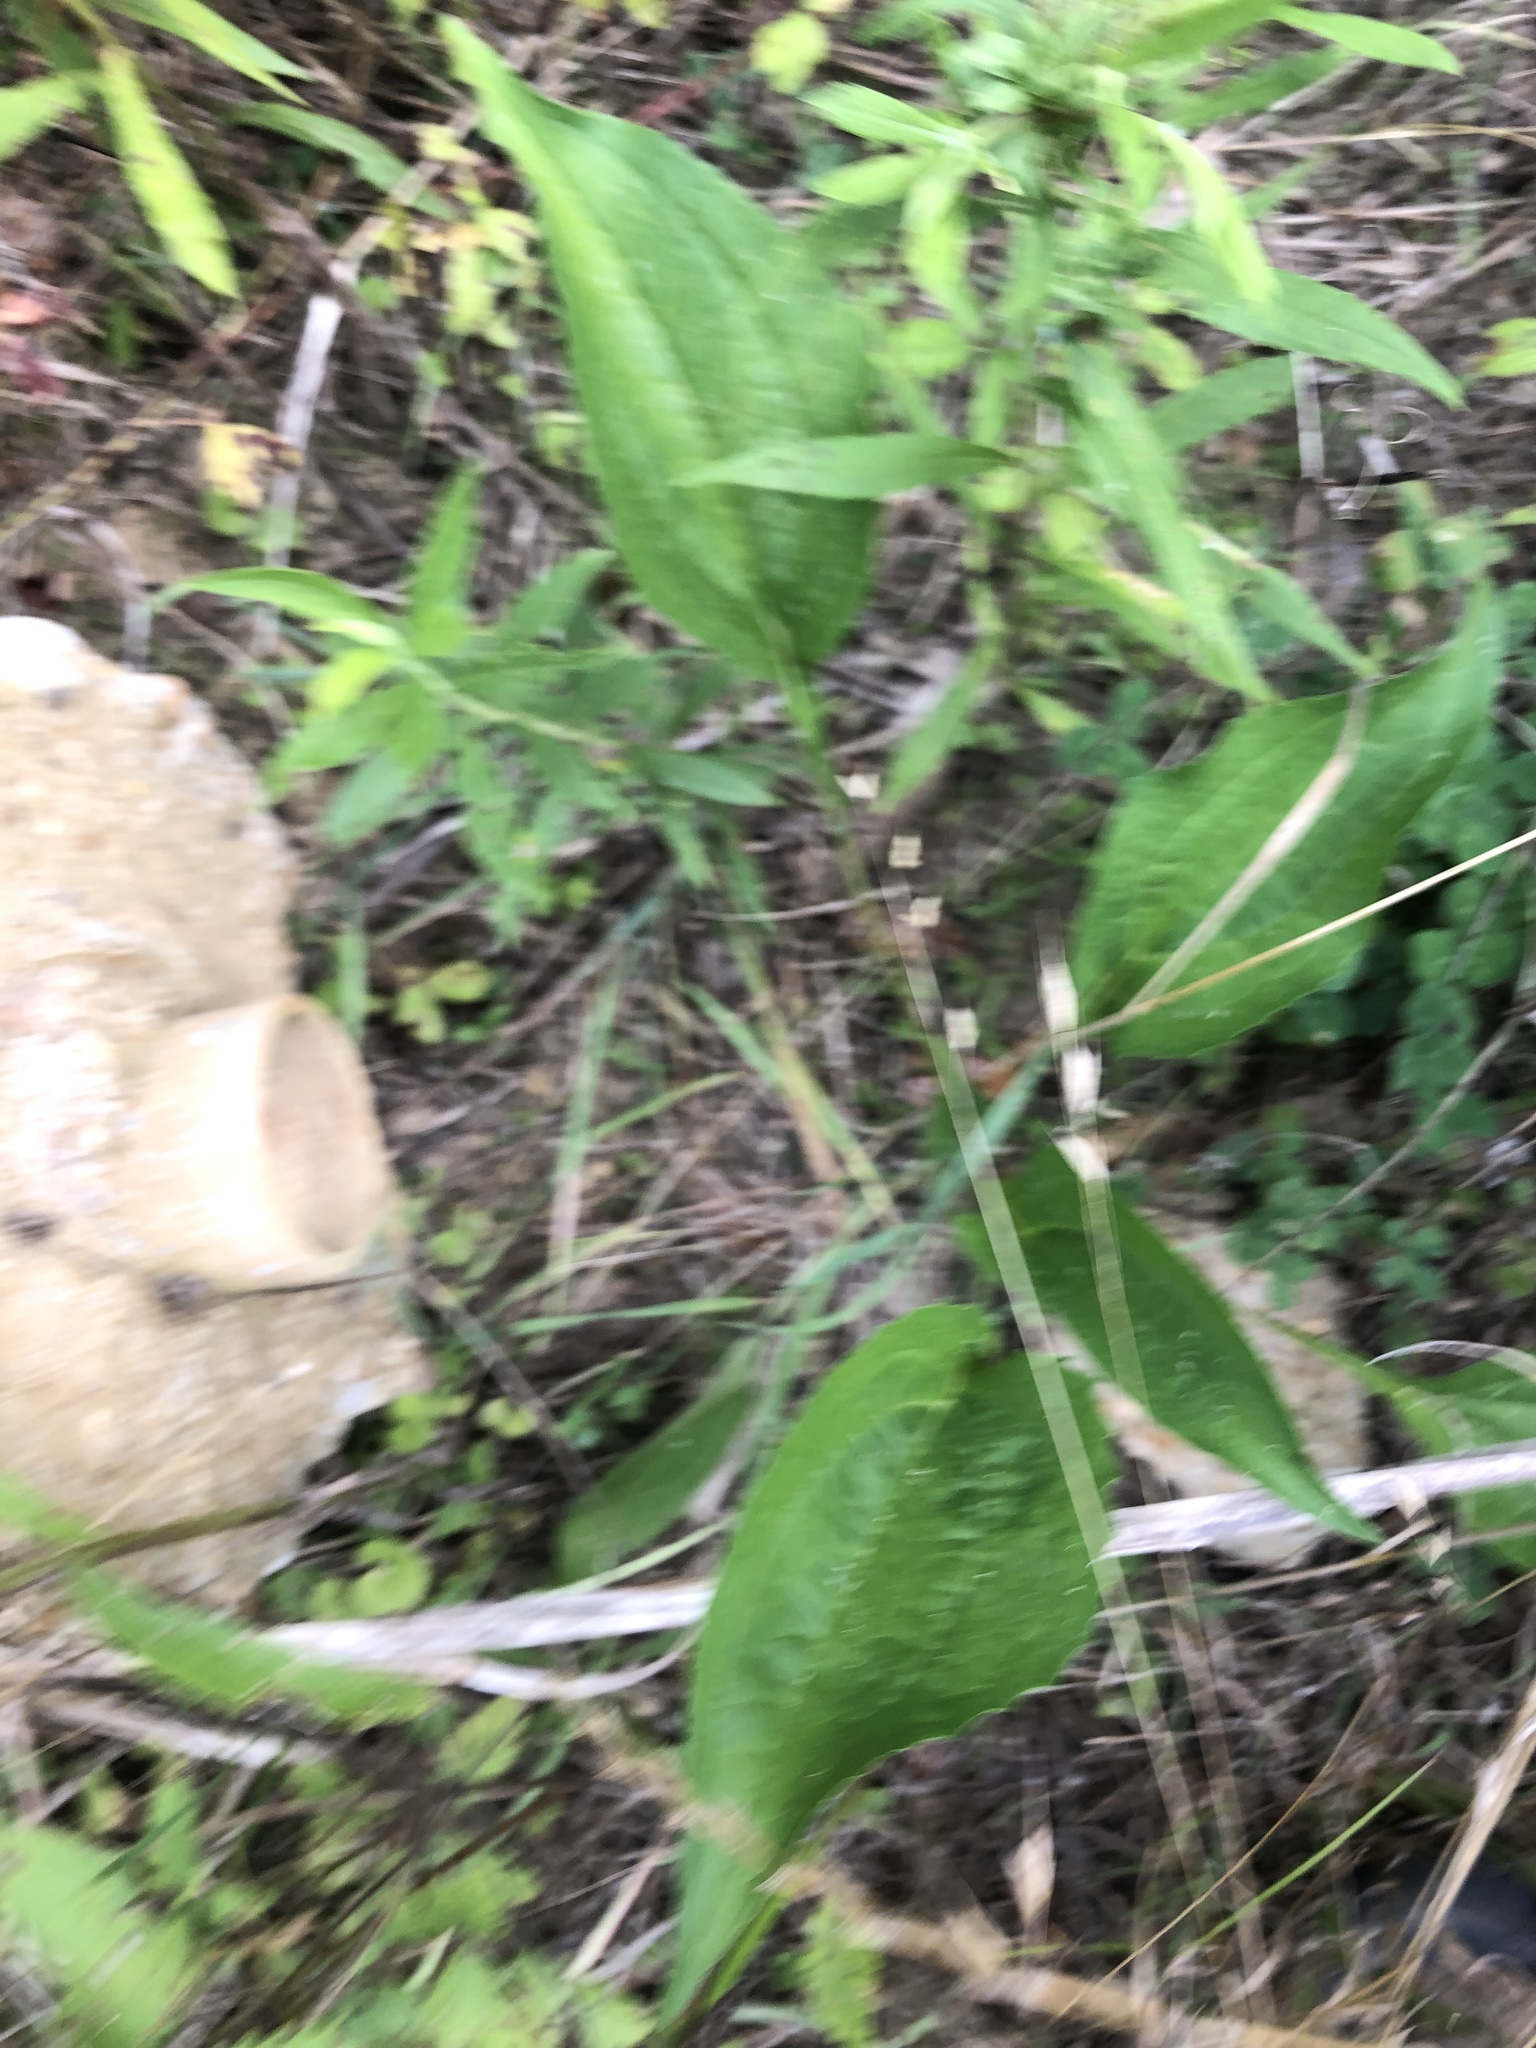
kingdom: Plantae
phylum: Tracheophyta
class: Magnoliopsida
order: Asterales
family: Asteraceae
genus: Echinacea
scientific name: Echinacea purpurea
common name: Broad-leaved purple coneflower
